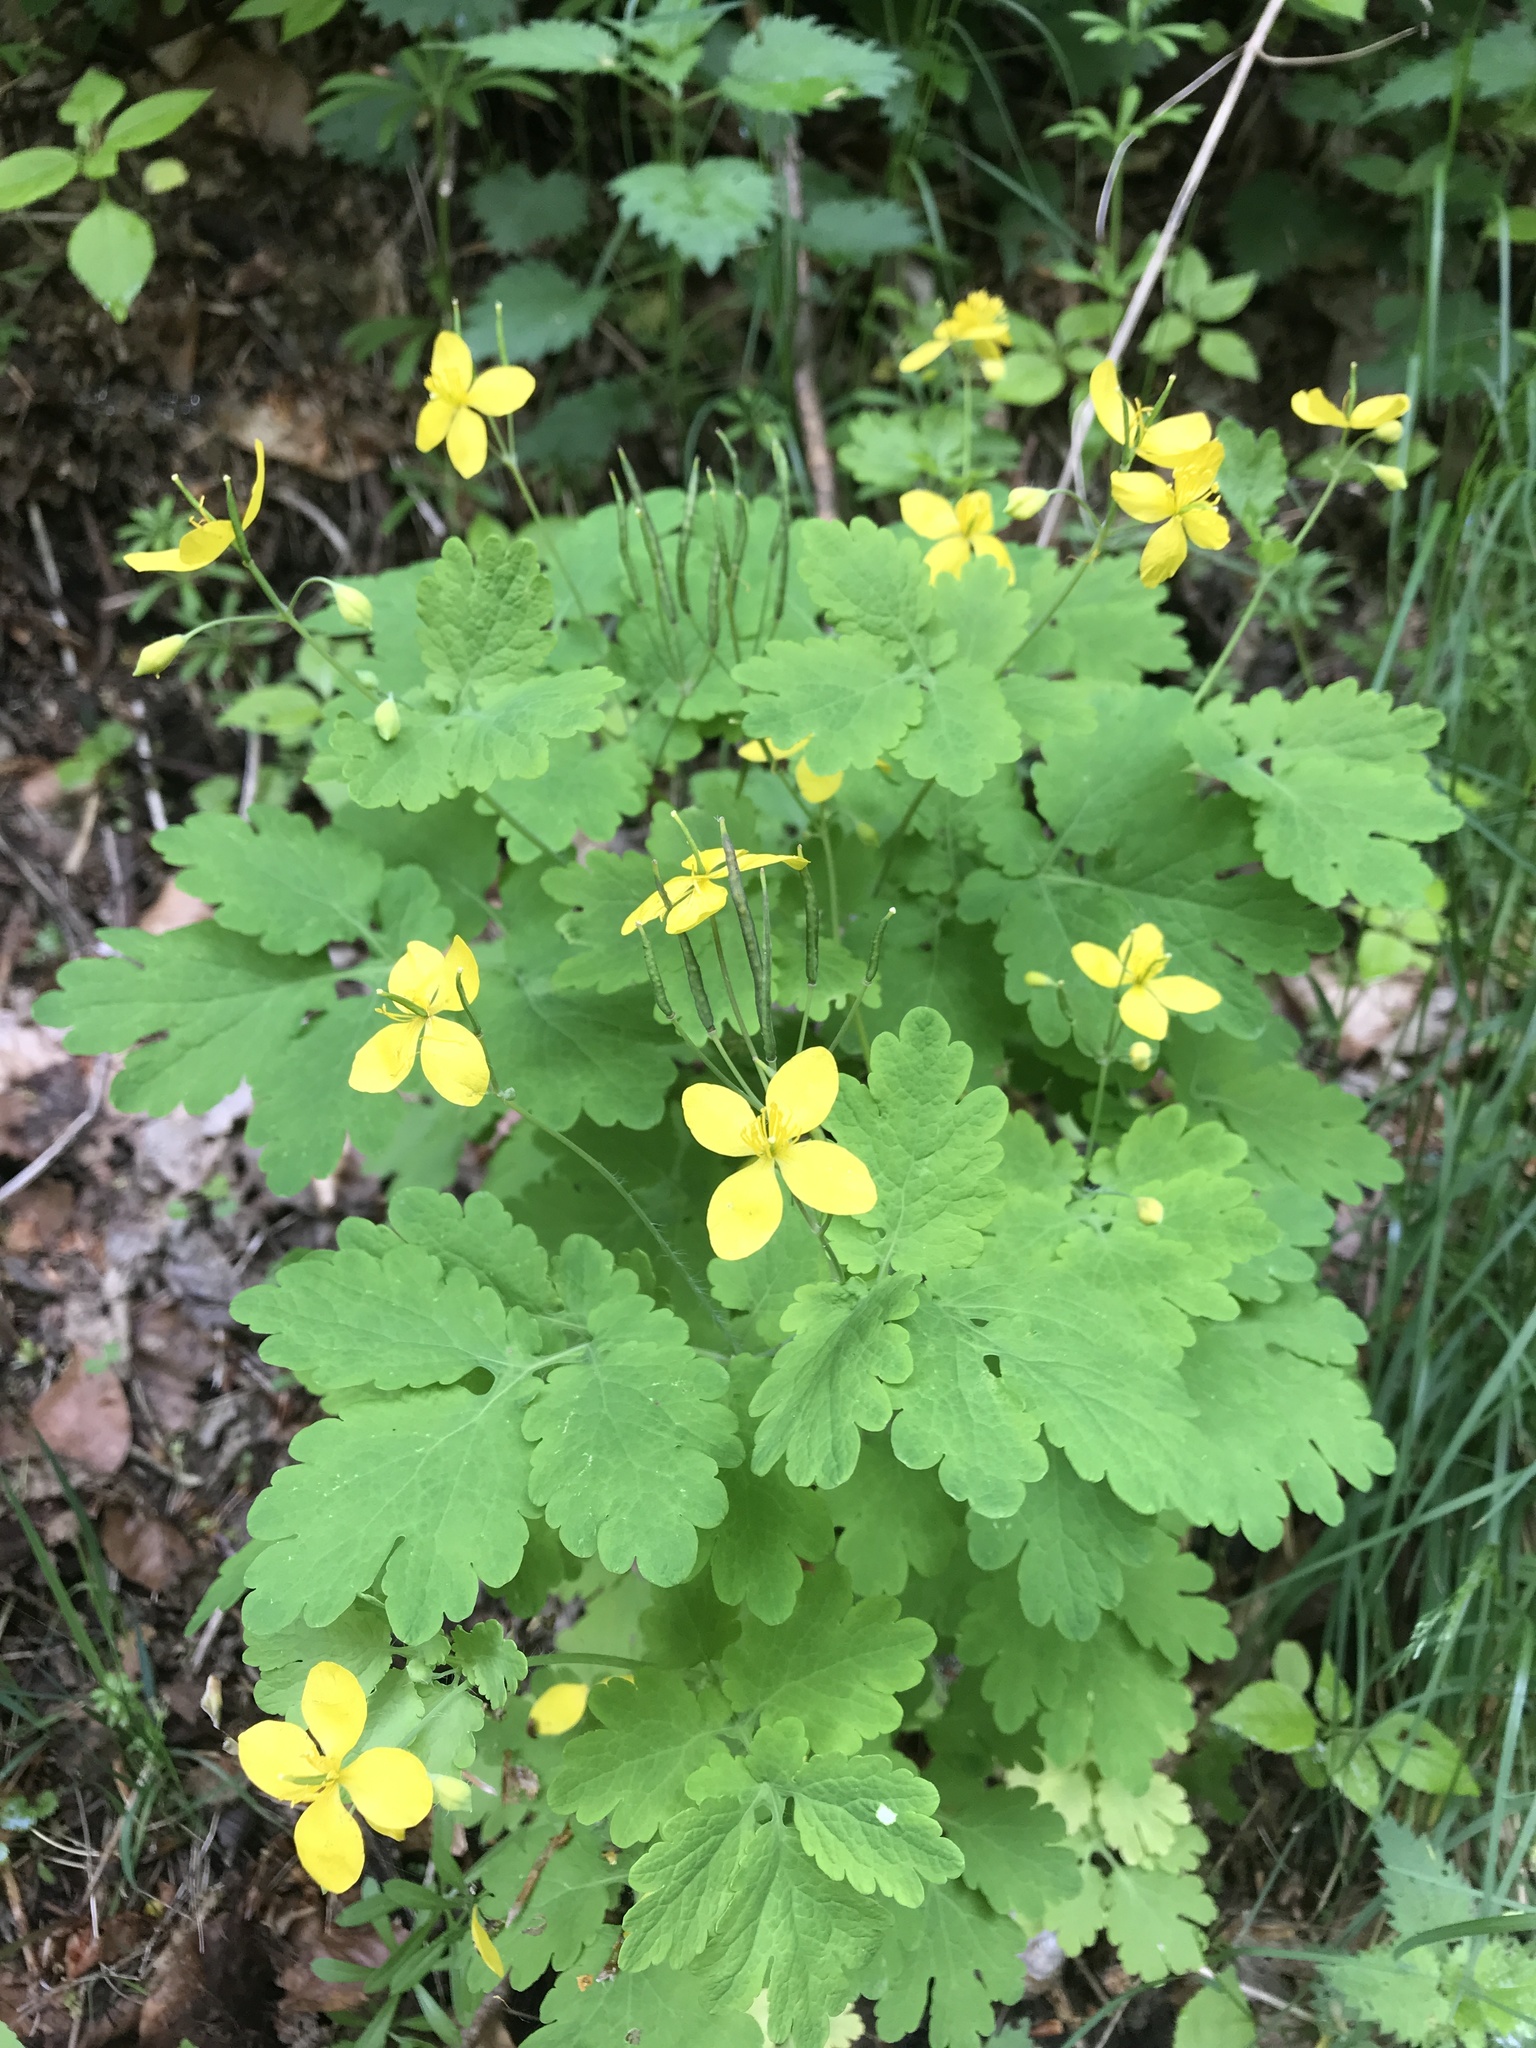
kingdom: Plantae
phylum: Tracheophyta
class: Magnoliopsida
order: Ranunculales
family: Papaveraceae
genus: Chelidonium
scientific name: Chelidonium majus
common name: Greater celandine
